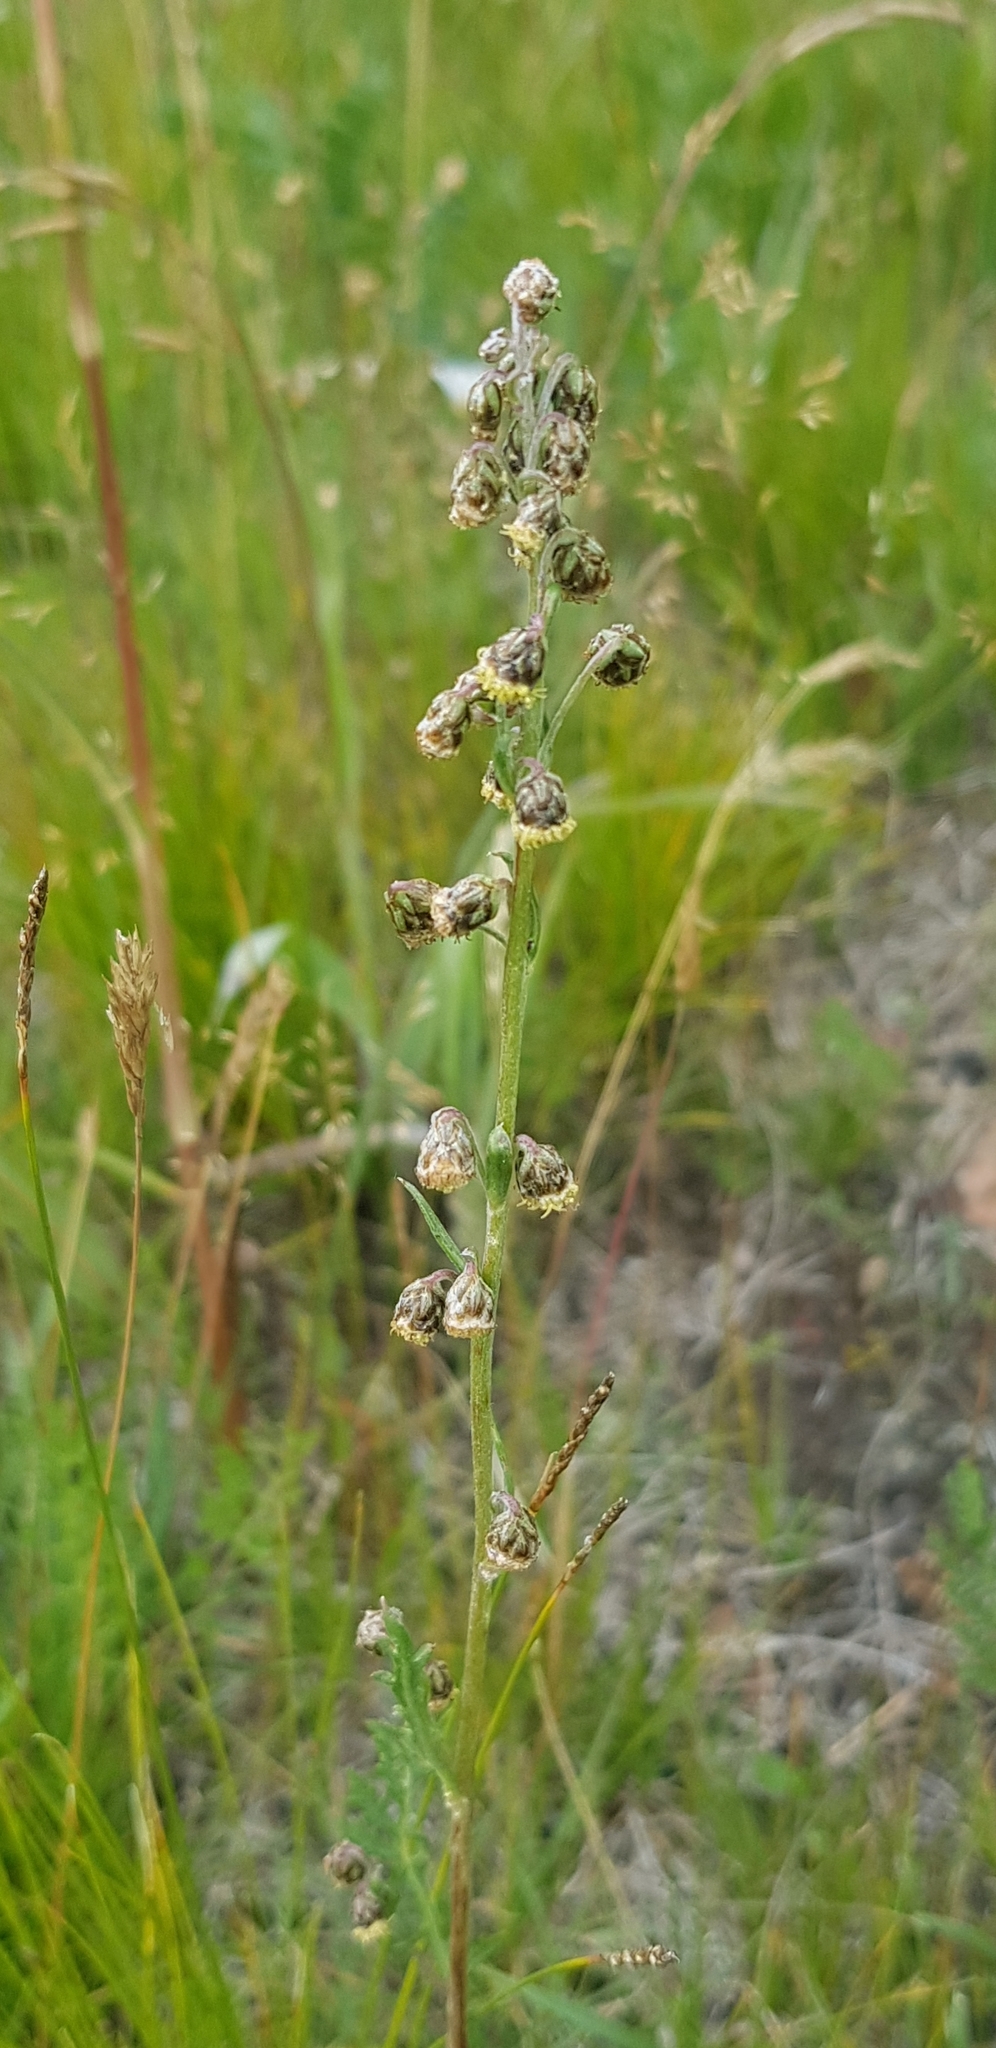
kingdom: Plantae
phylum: Tracheophyta
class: Magnoliopsida
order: Asterales
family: Asteraceae
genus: Artemisia
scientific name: Artemisia tanacetifolia
